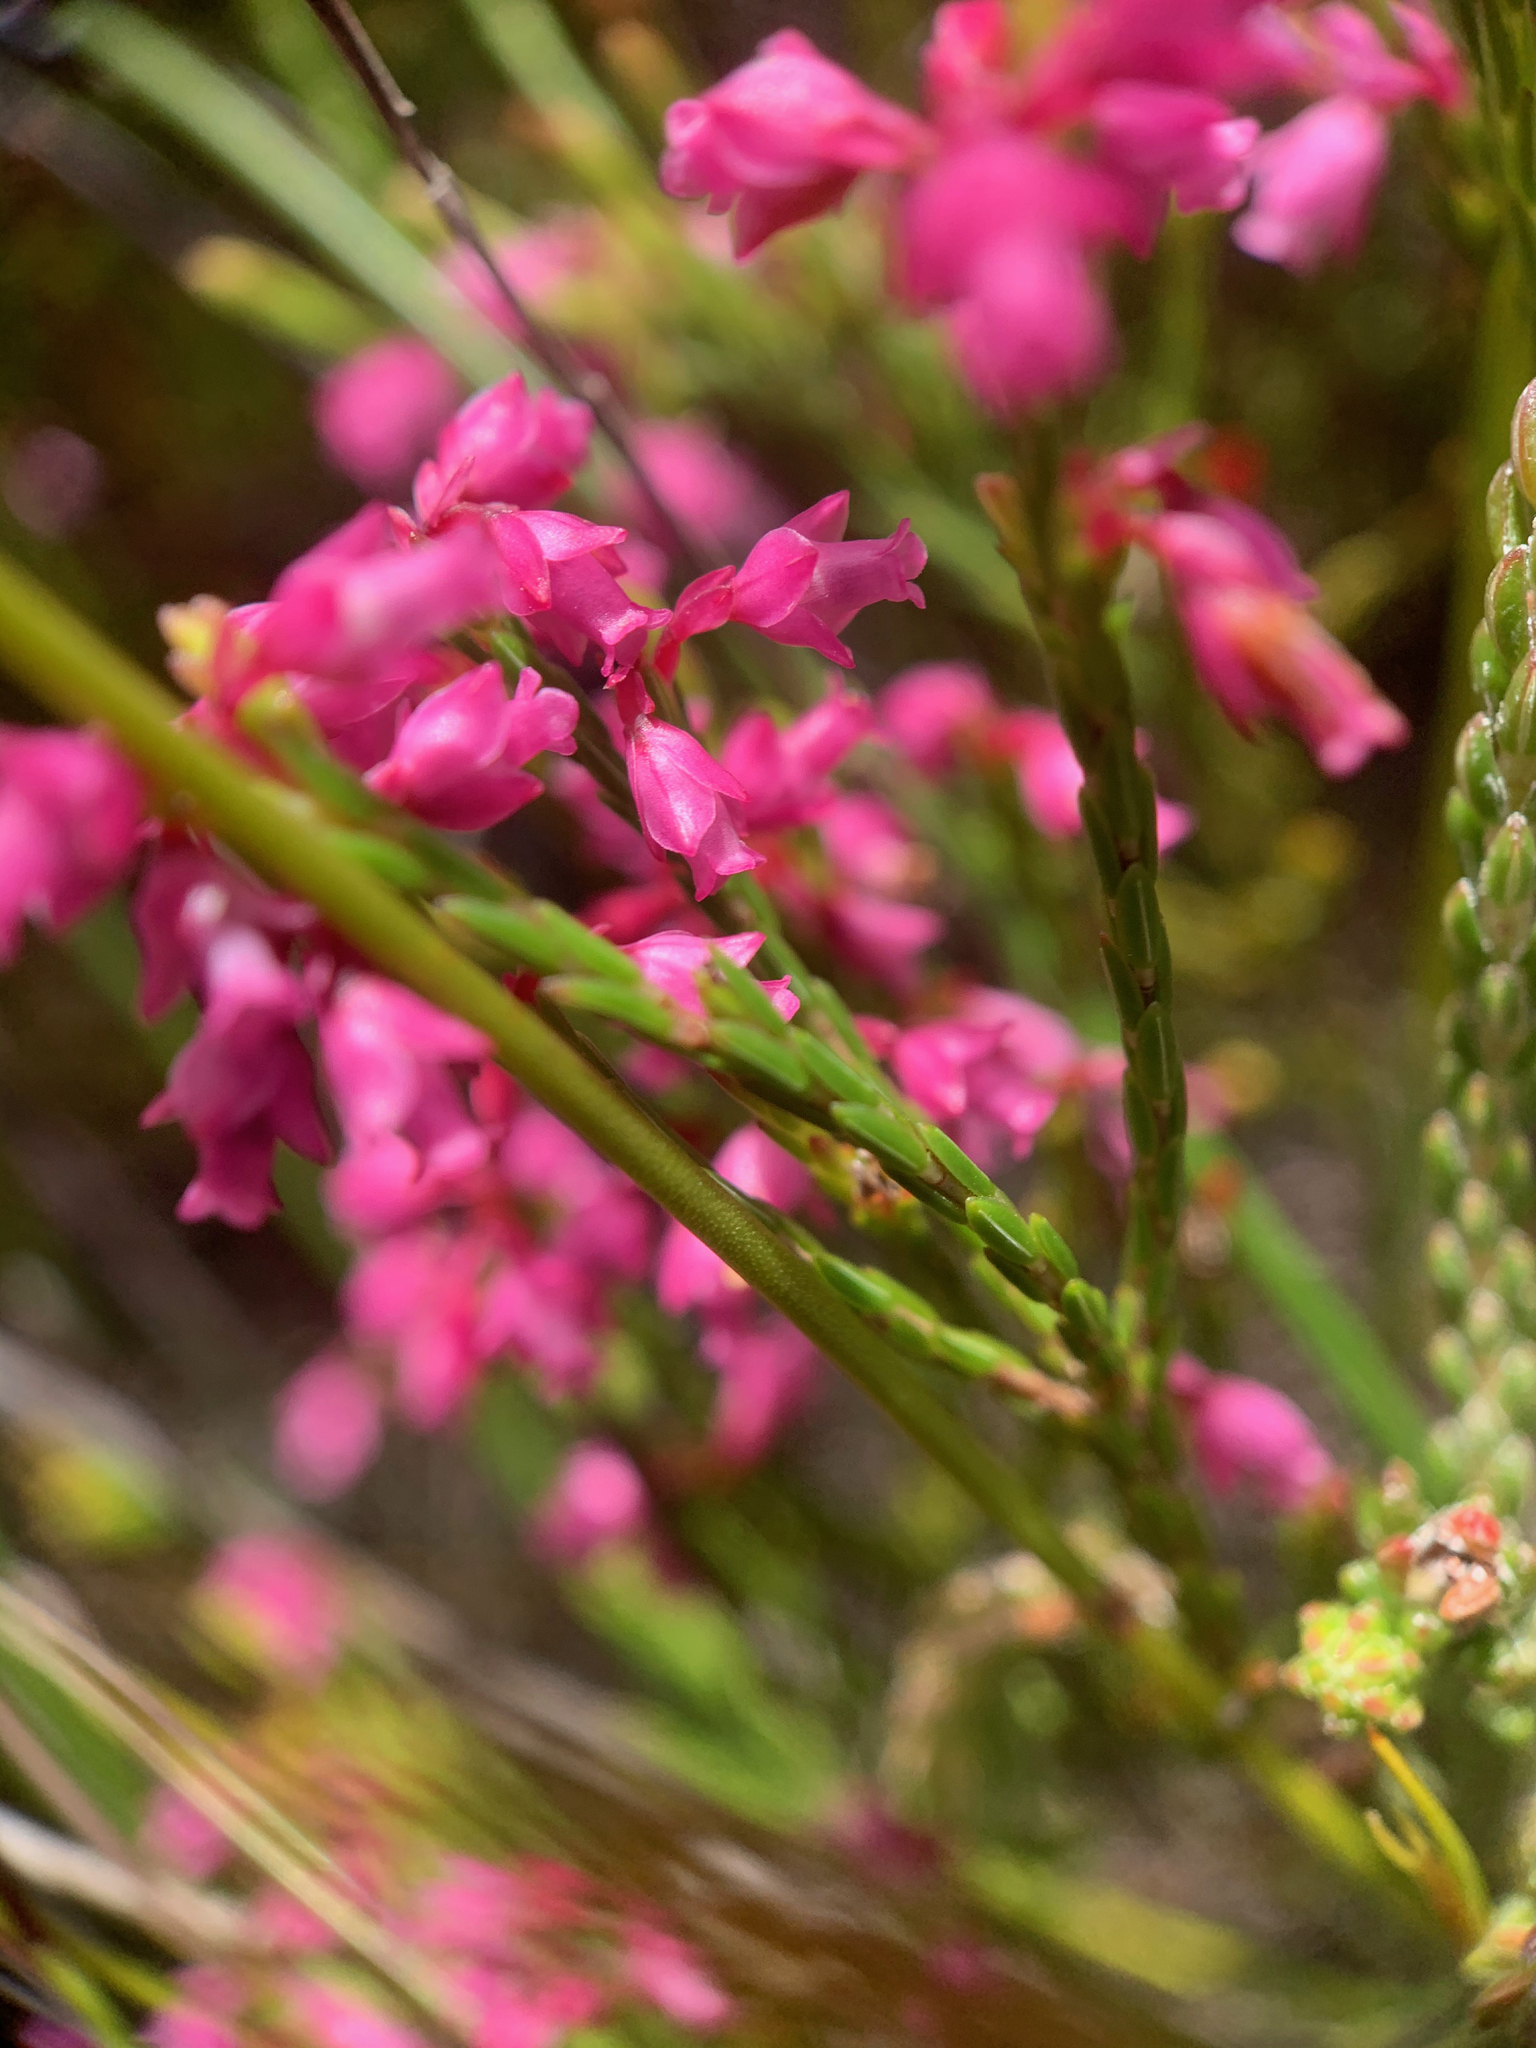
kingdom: Plantae
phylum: Tracheophyta
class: Magnoliopsida
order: Ericales
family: Ericaceae
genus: Erica
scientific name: Erica corifolia
